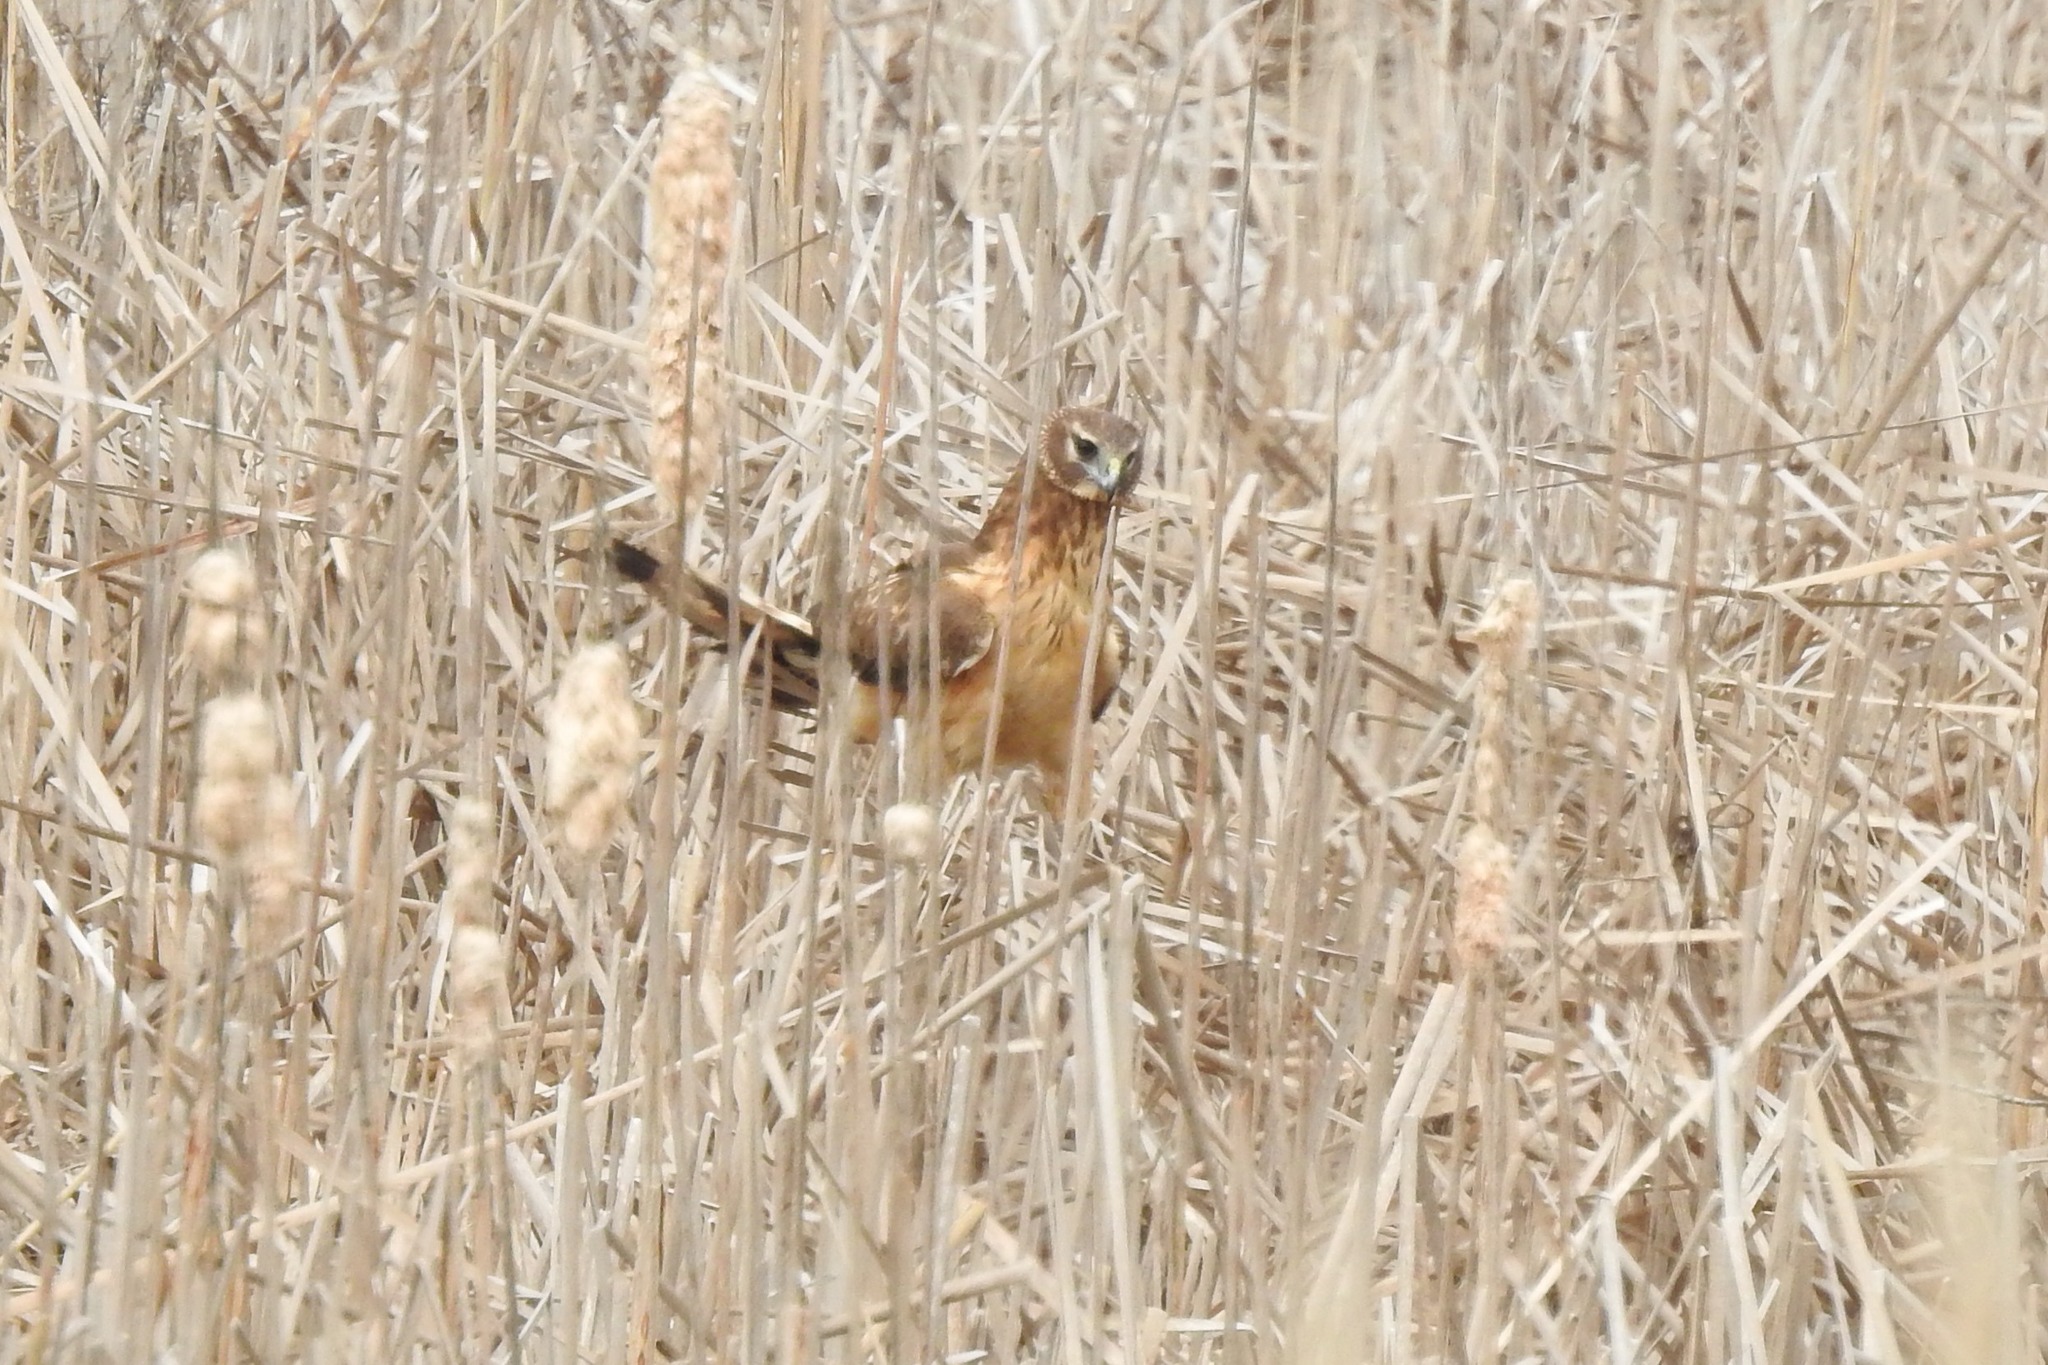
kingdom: Animalia
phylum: Chordata
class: Aves
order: Accipitriformes
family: Accipitridae
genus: Circus
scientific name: Circus cyaneus
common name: Hen harrier
